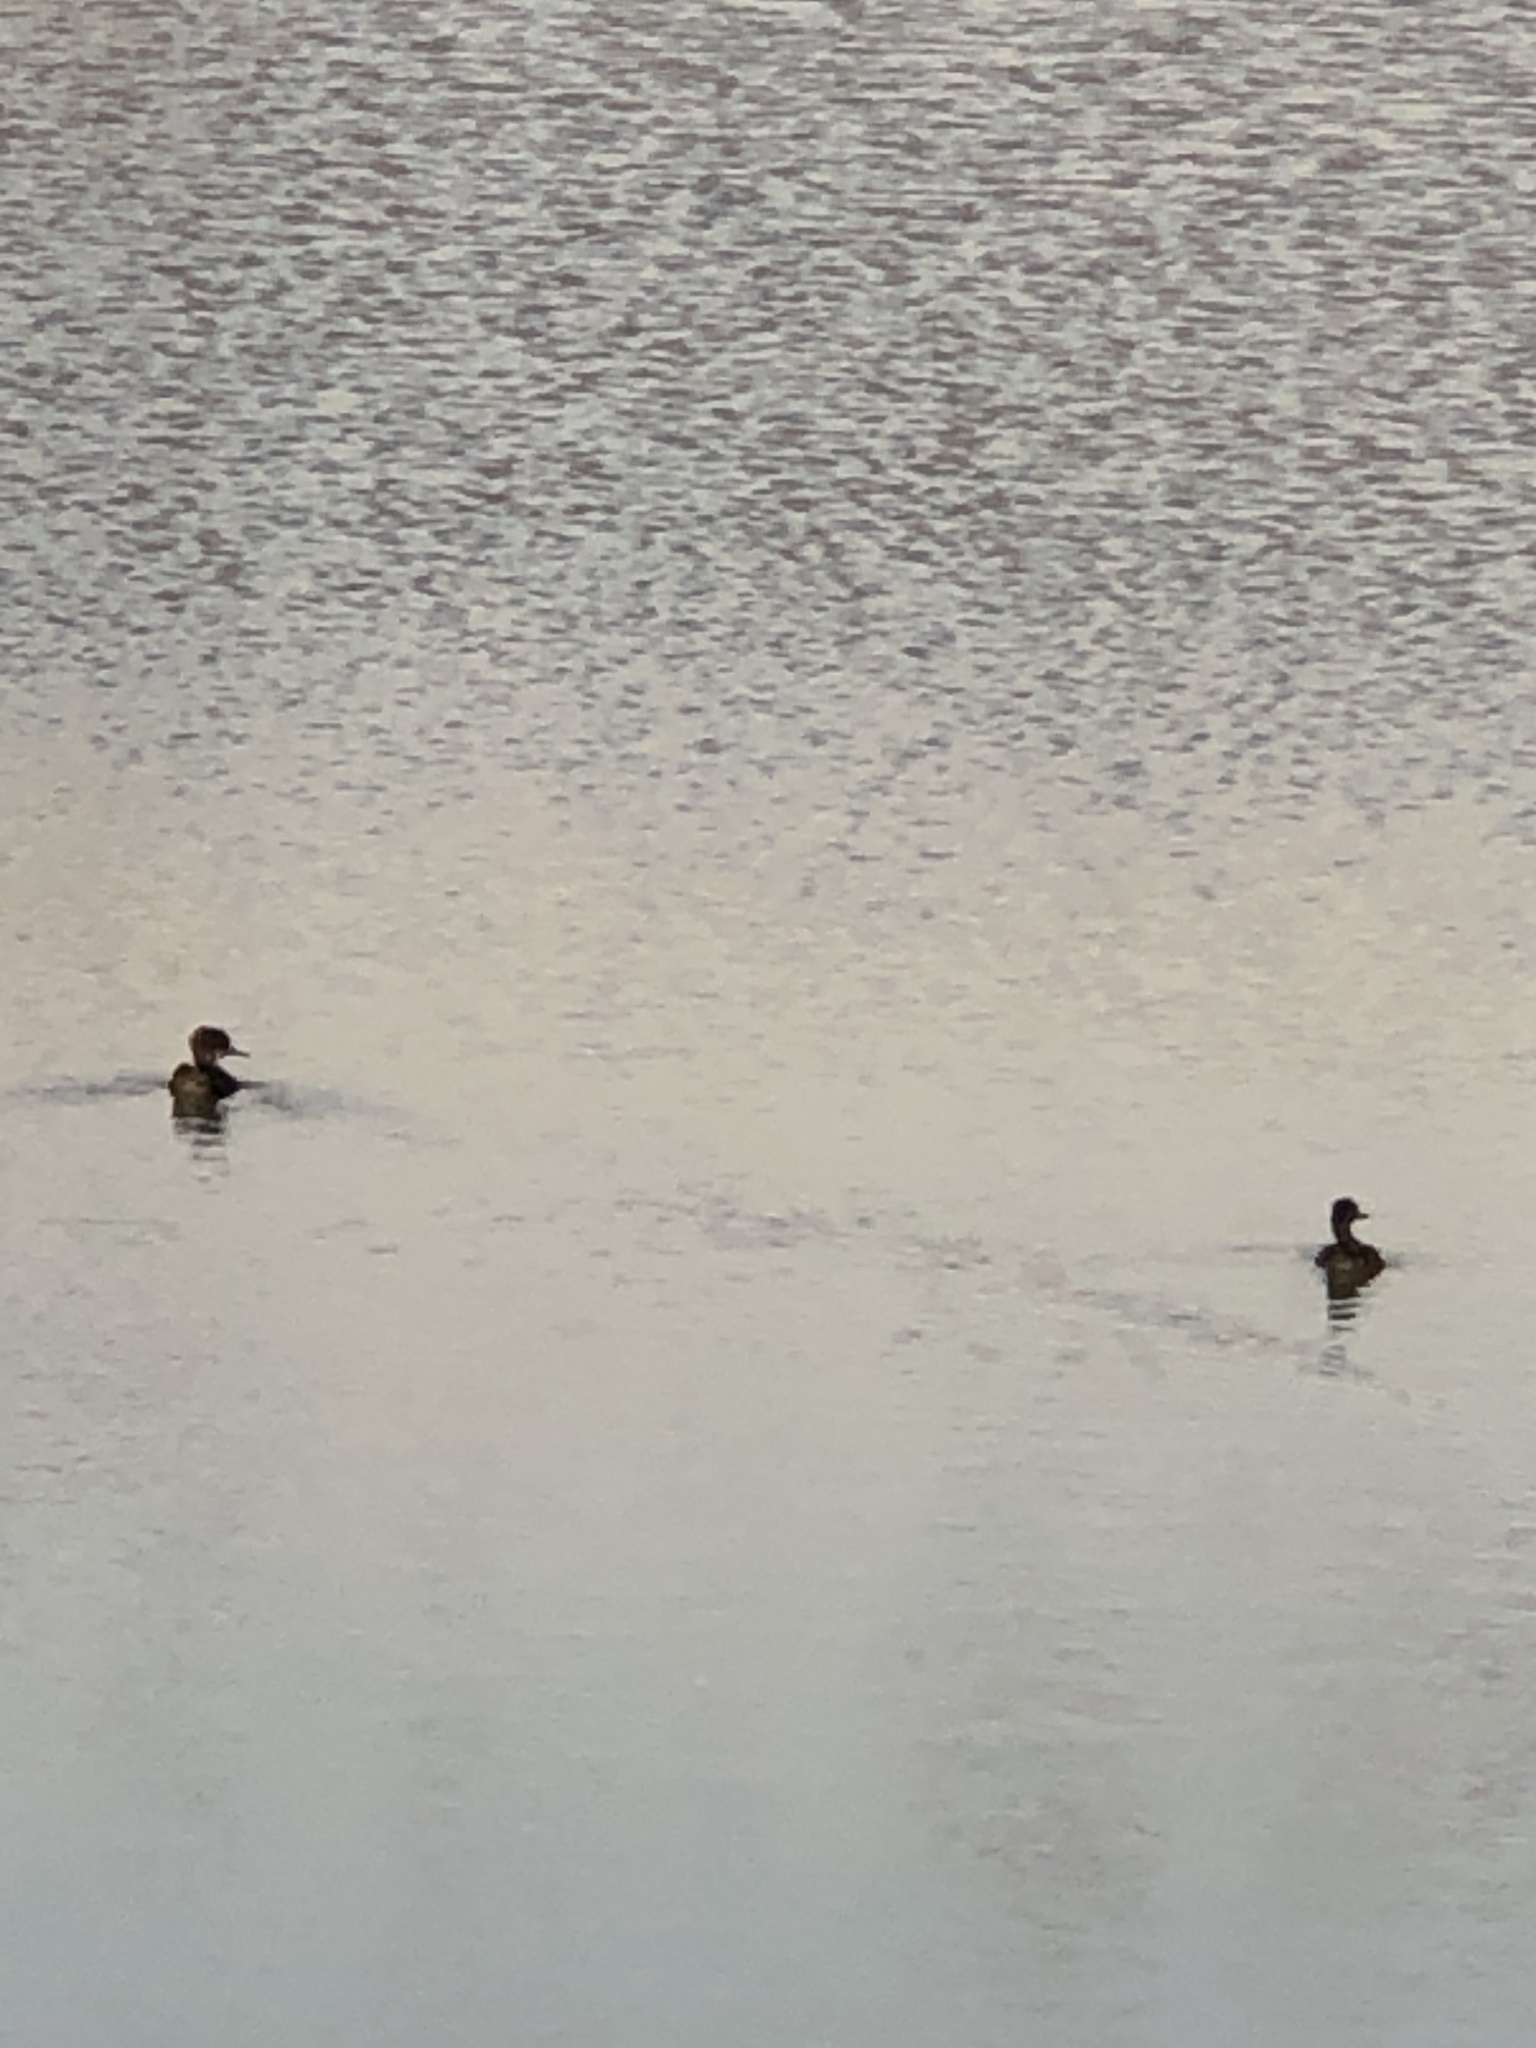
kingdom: Animalia
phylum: Chordata
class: Aves
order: Anseriformes
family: Anatidae
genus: Lophodytes
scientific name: Lophodytes cucullatus
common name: Hooded merganser
